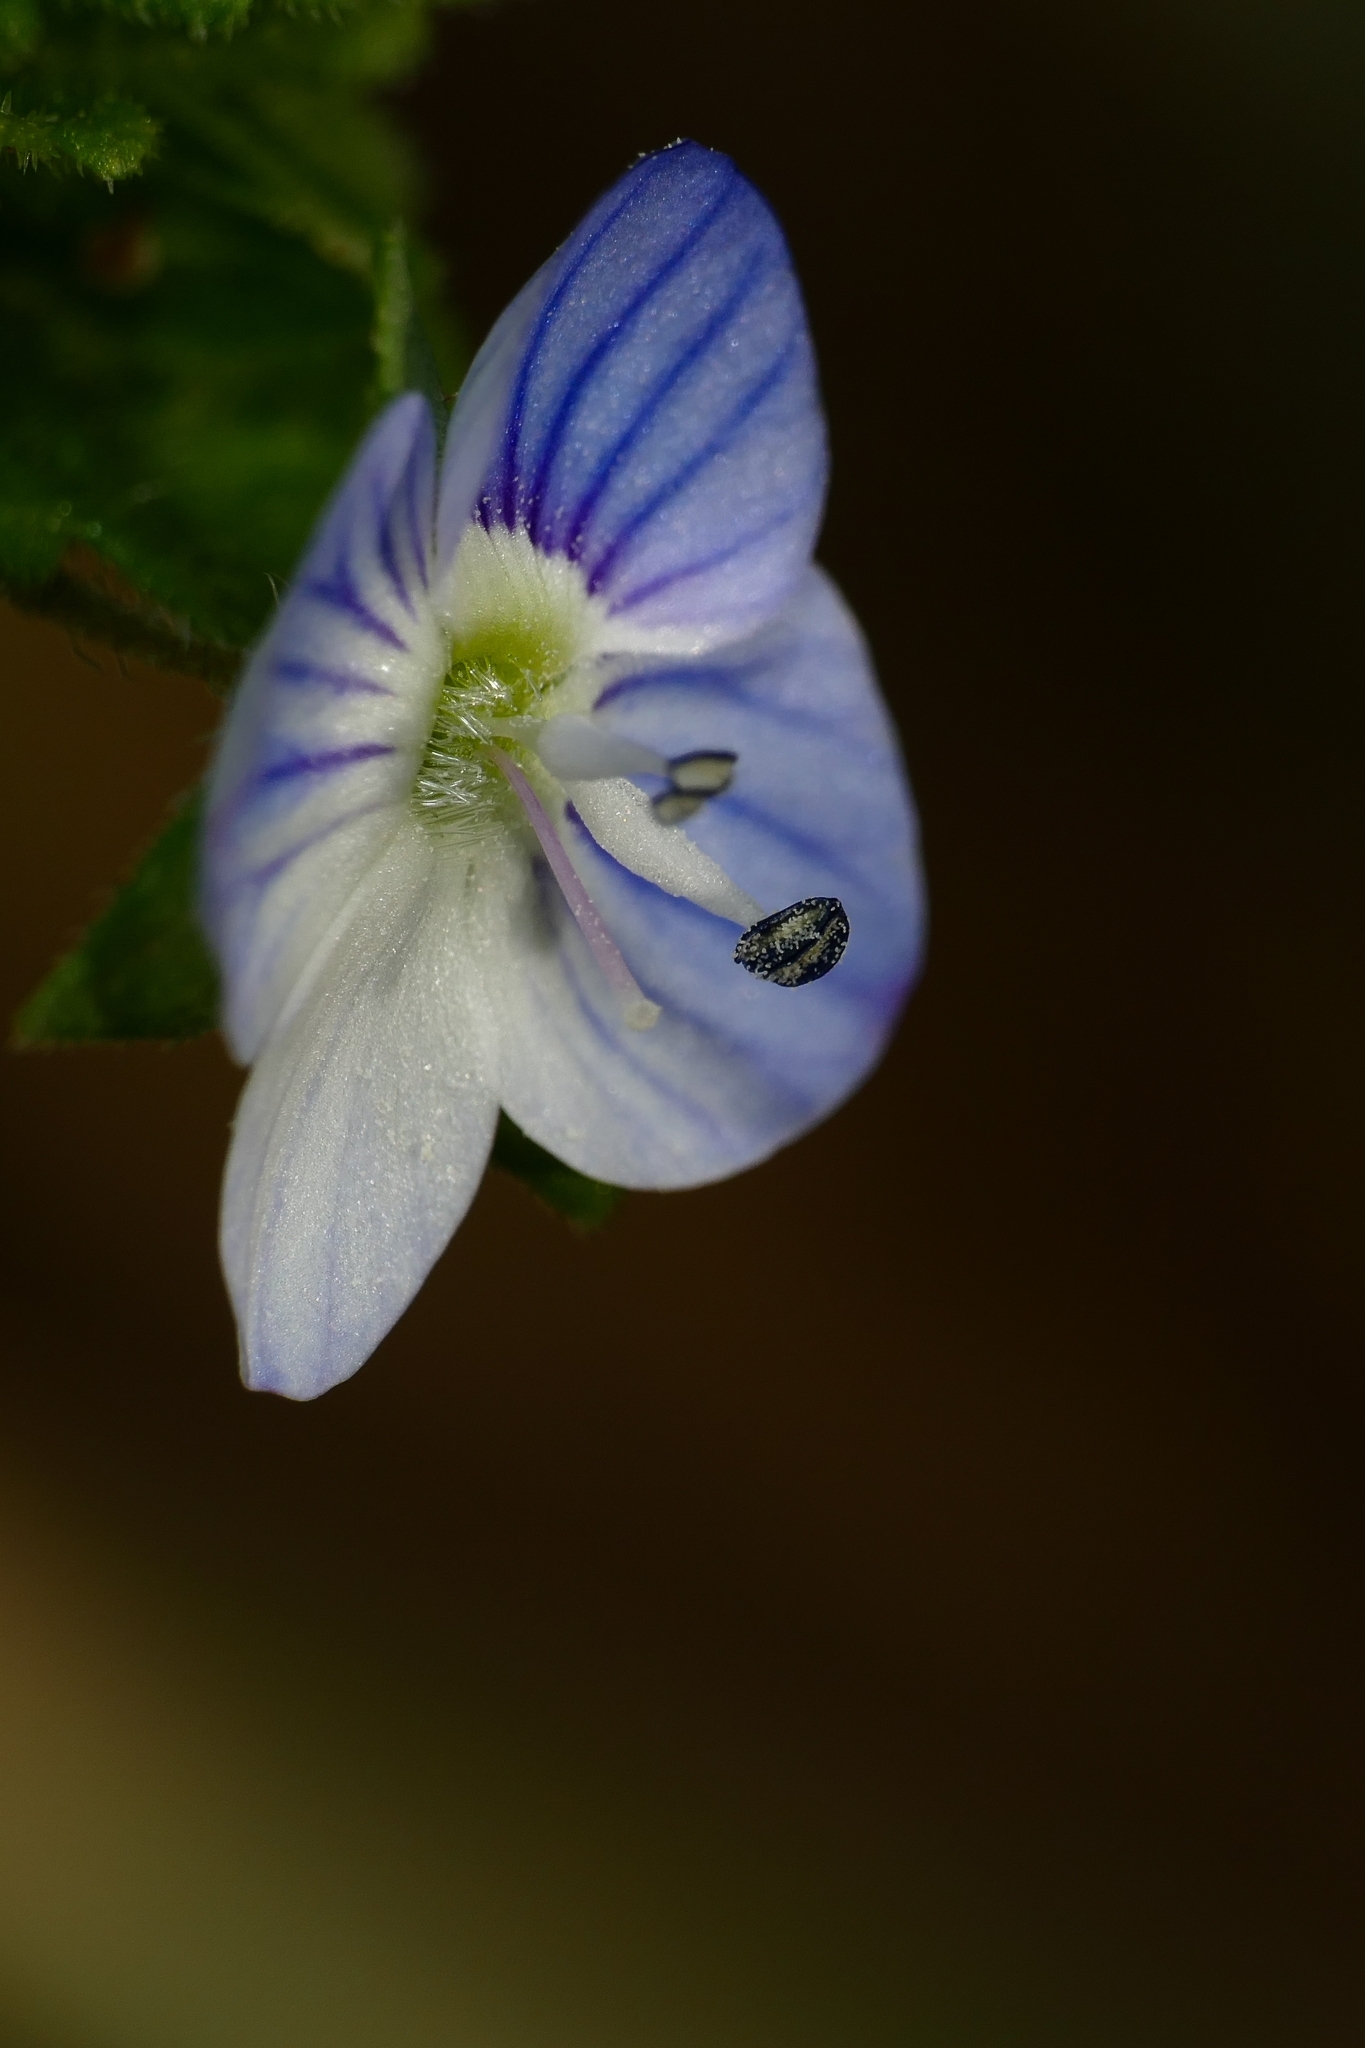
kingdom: Plantae
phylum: Tracheophyta
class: Magnoliopsida
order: Lamiales
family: Plantaginaceae
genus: Veronica
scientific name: Veronica persica
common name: Common field-speedwell
